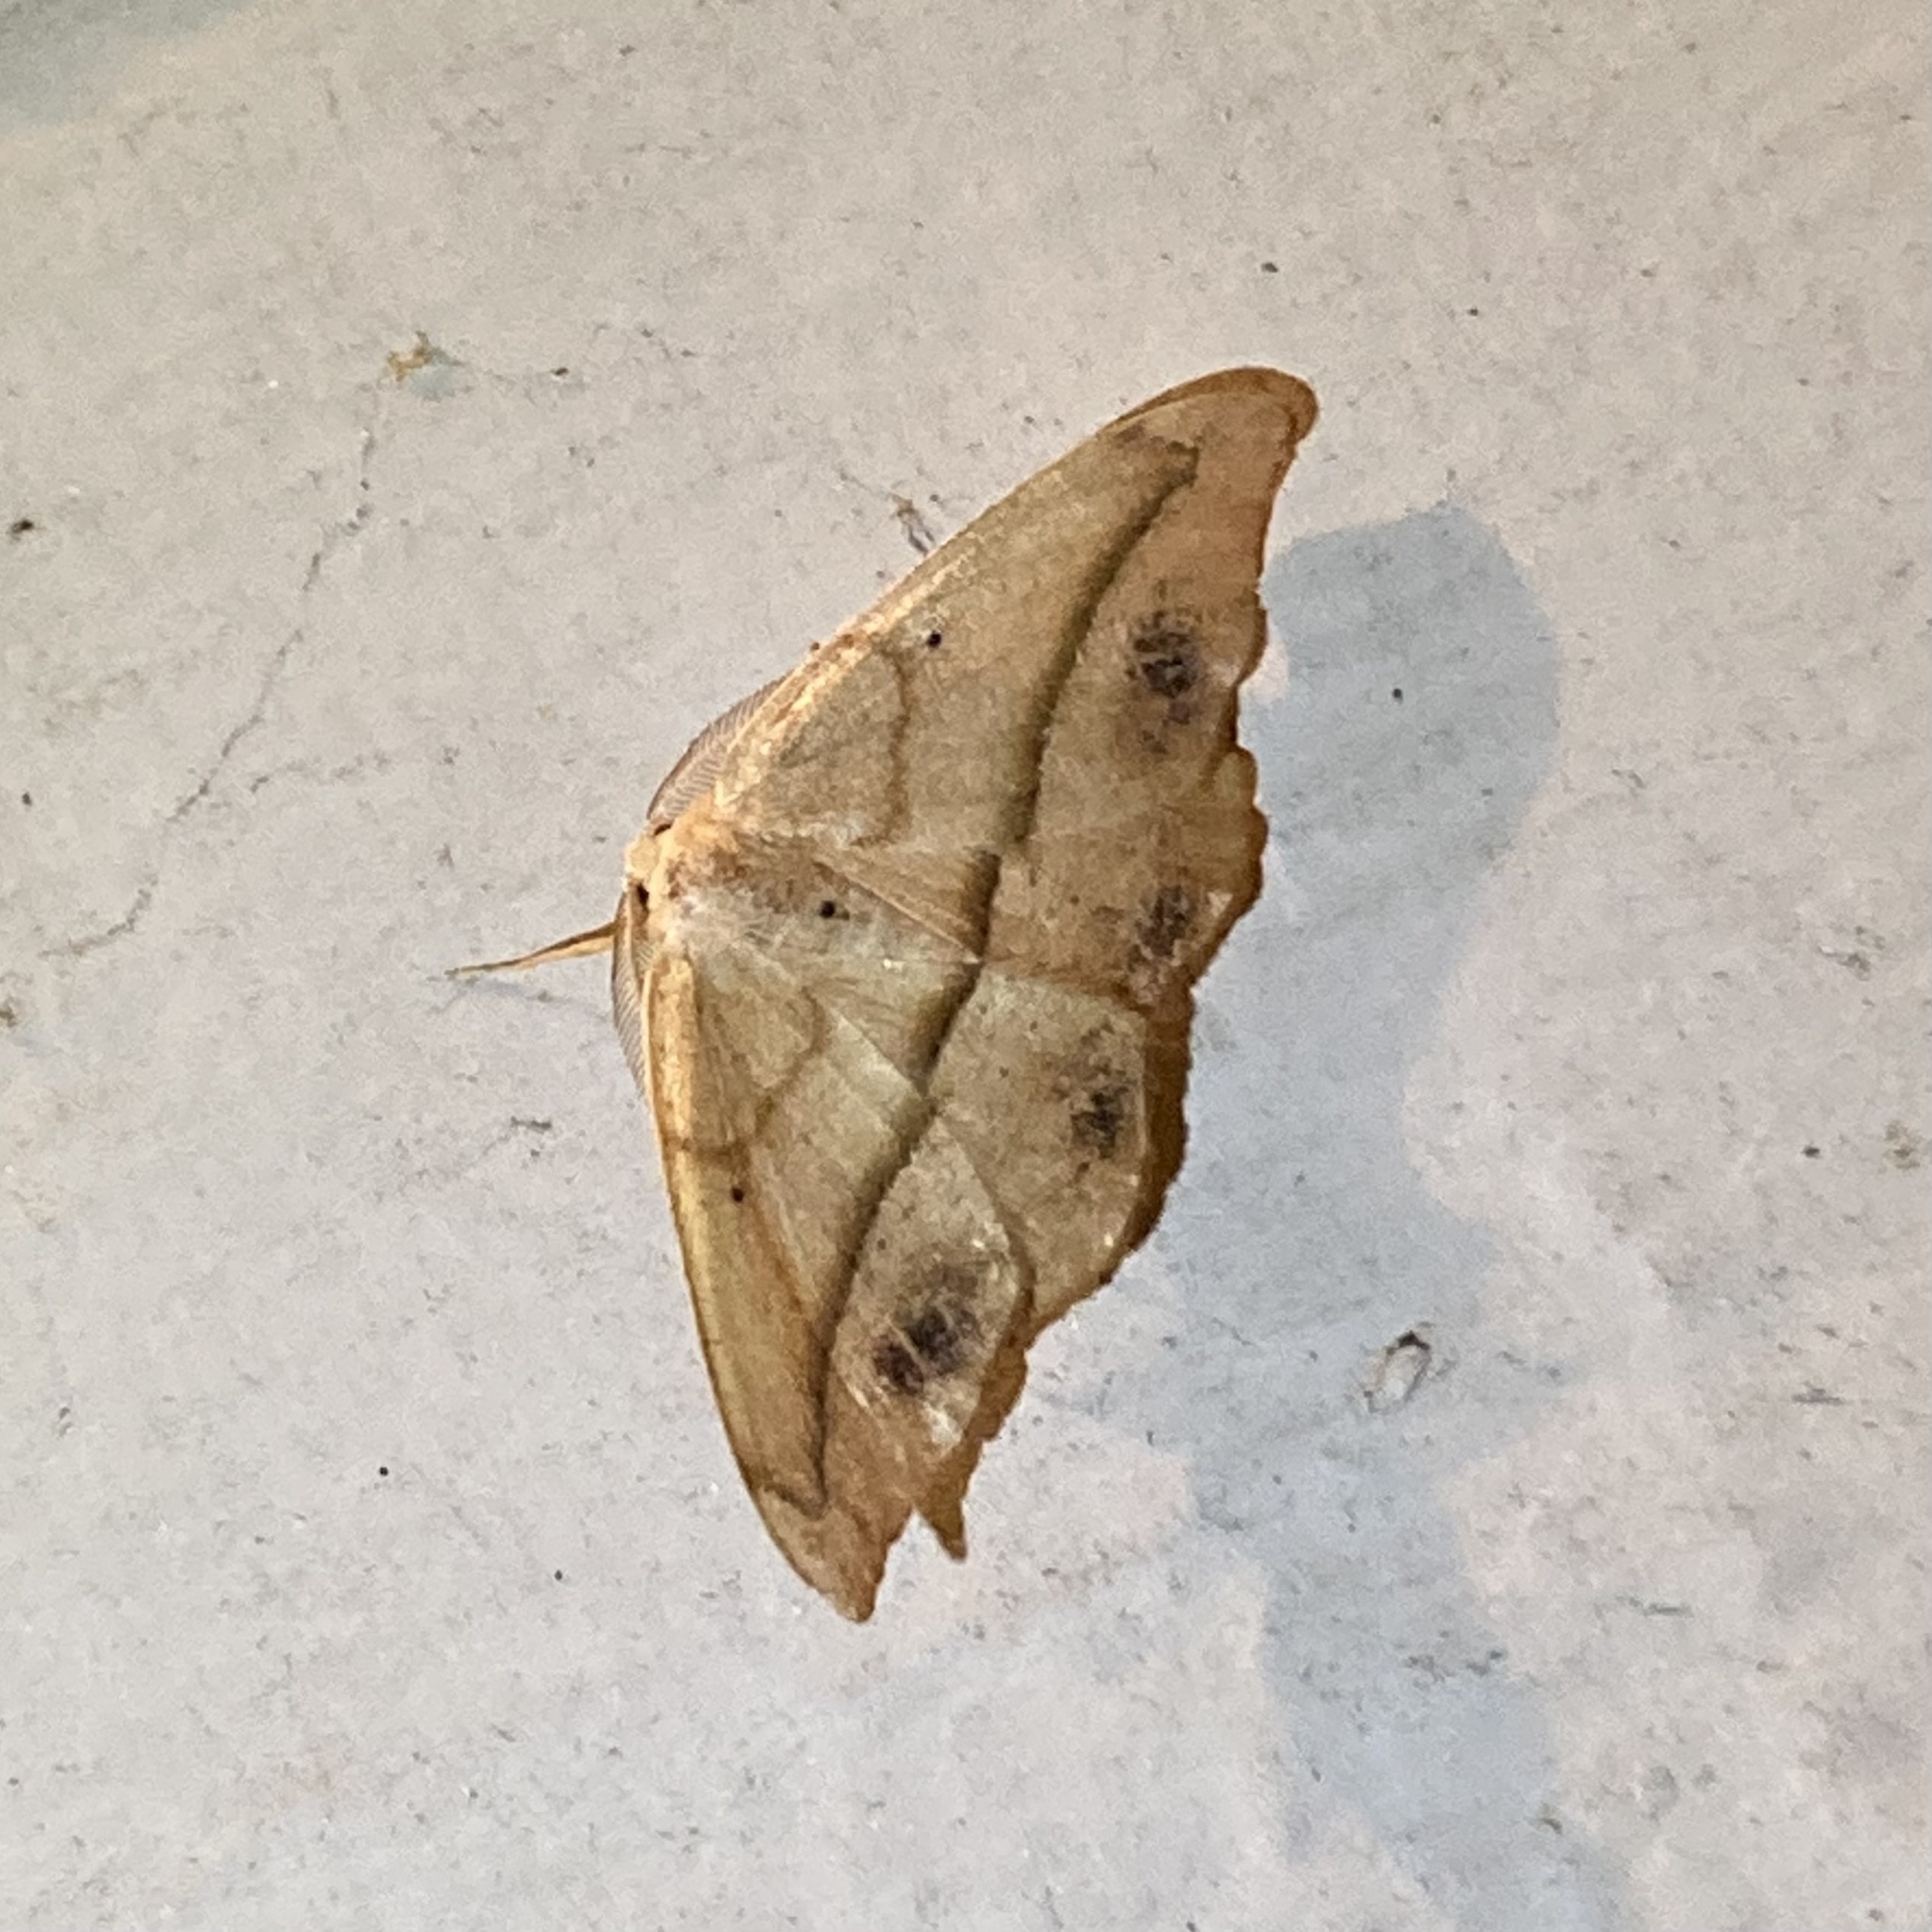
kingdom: Animalia
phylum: Arthropoda
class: Insecta
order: Lepidoptera
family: Geometridae
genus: Patalene
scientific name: Patalene olyzonaria
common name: Juniper geometer moth
